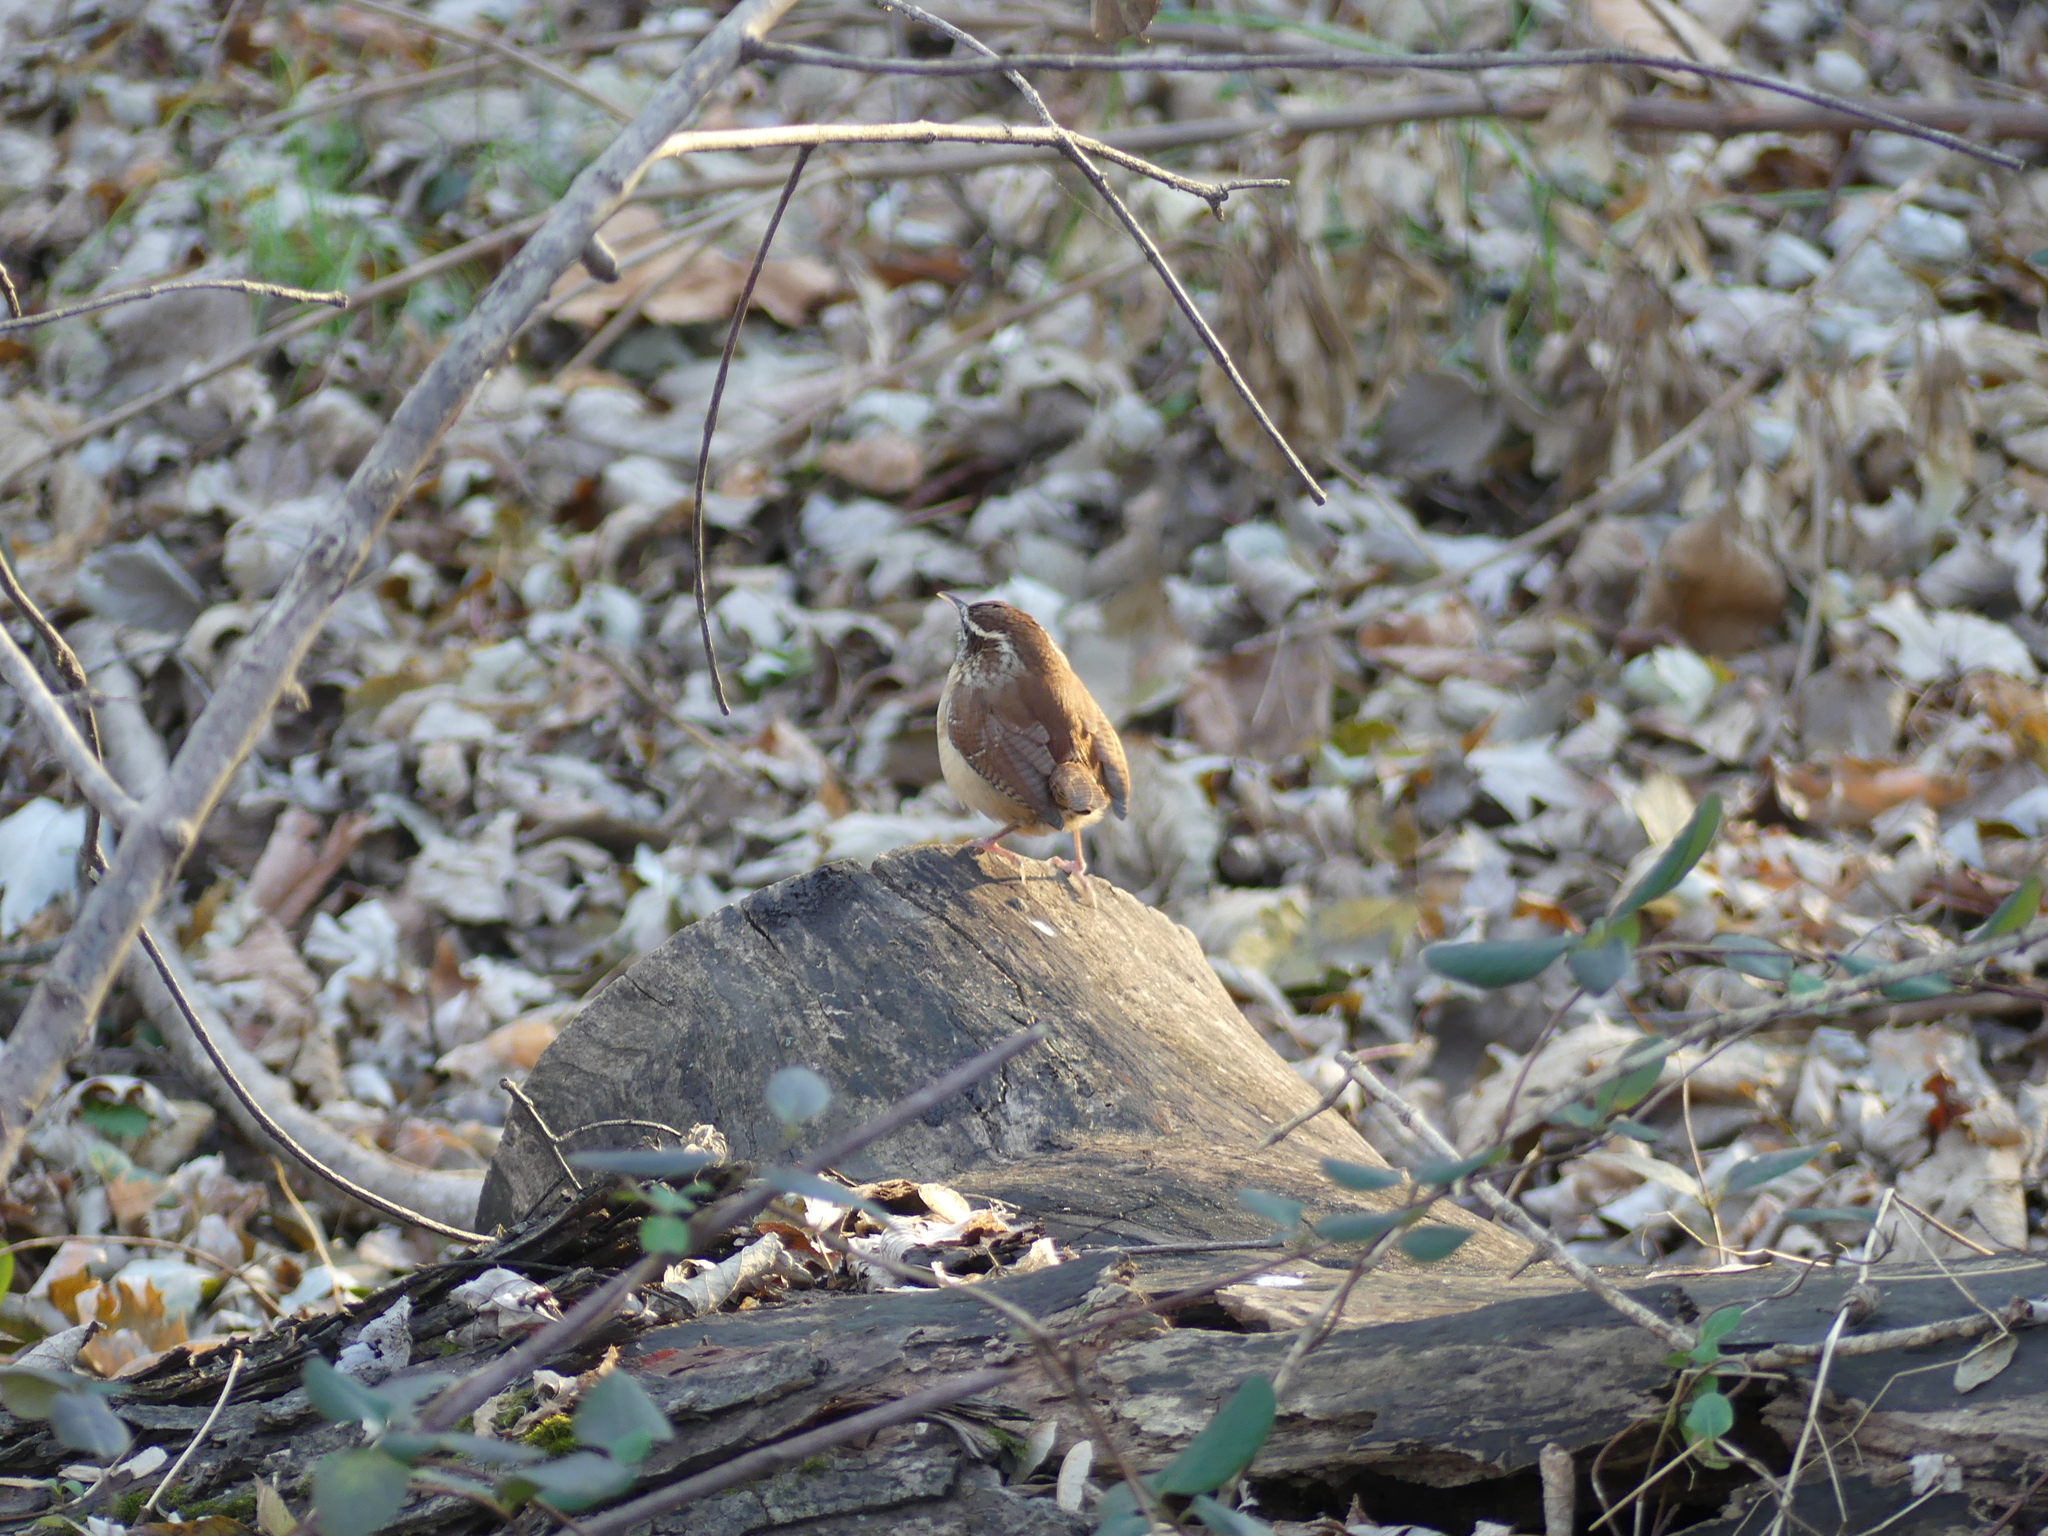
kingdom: Animalia
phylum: Chordata
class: Aves
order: Passeriformes
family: Troglodytidae
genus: Thryothorus
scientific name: Thryothorus ludovicianus
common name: Carolina wren
